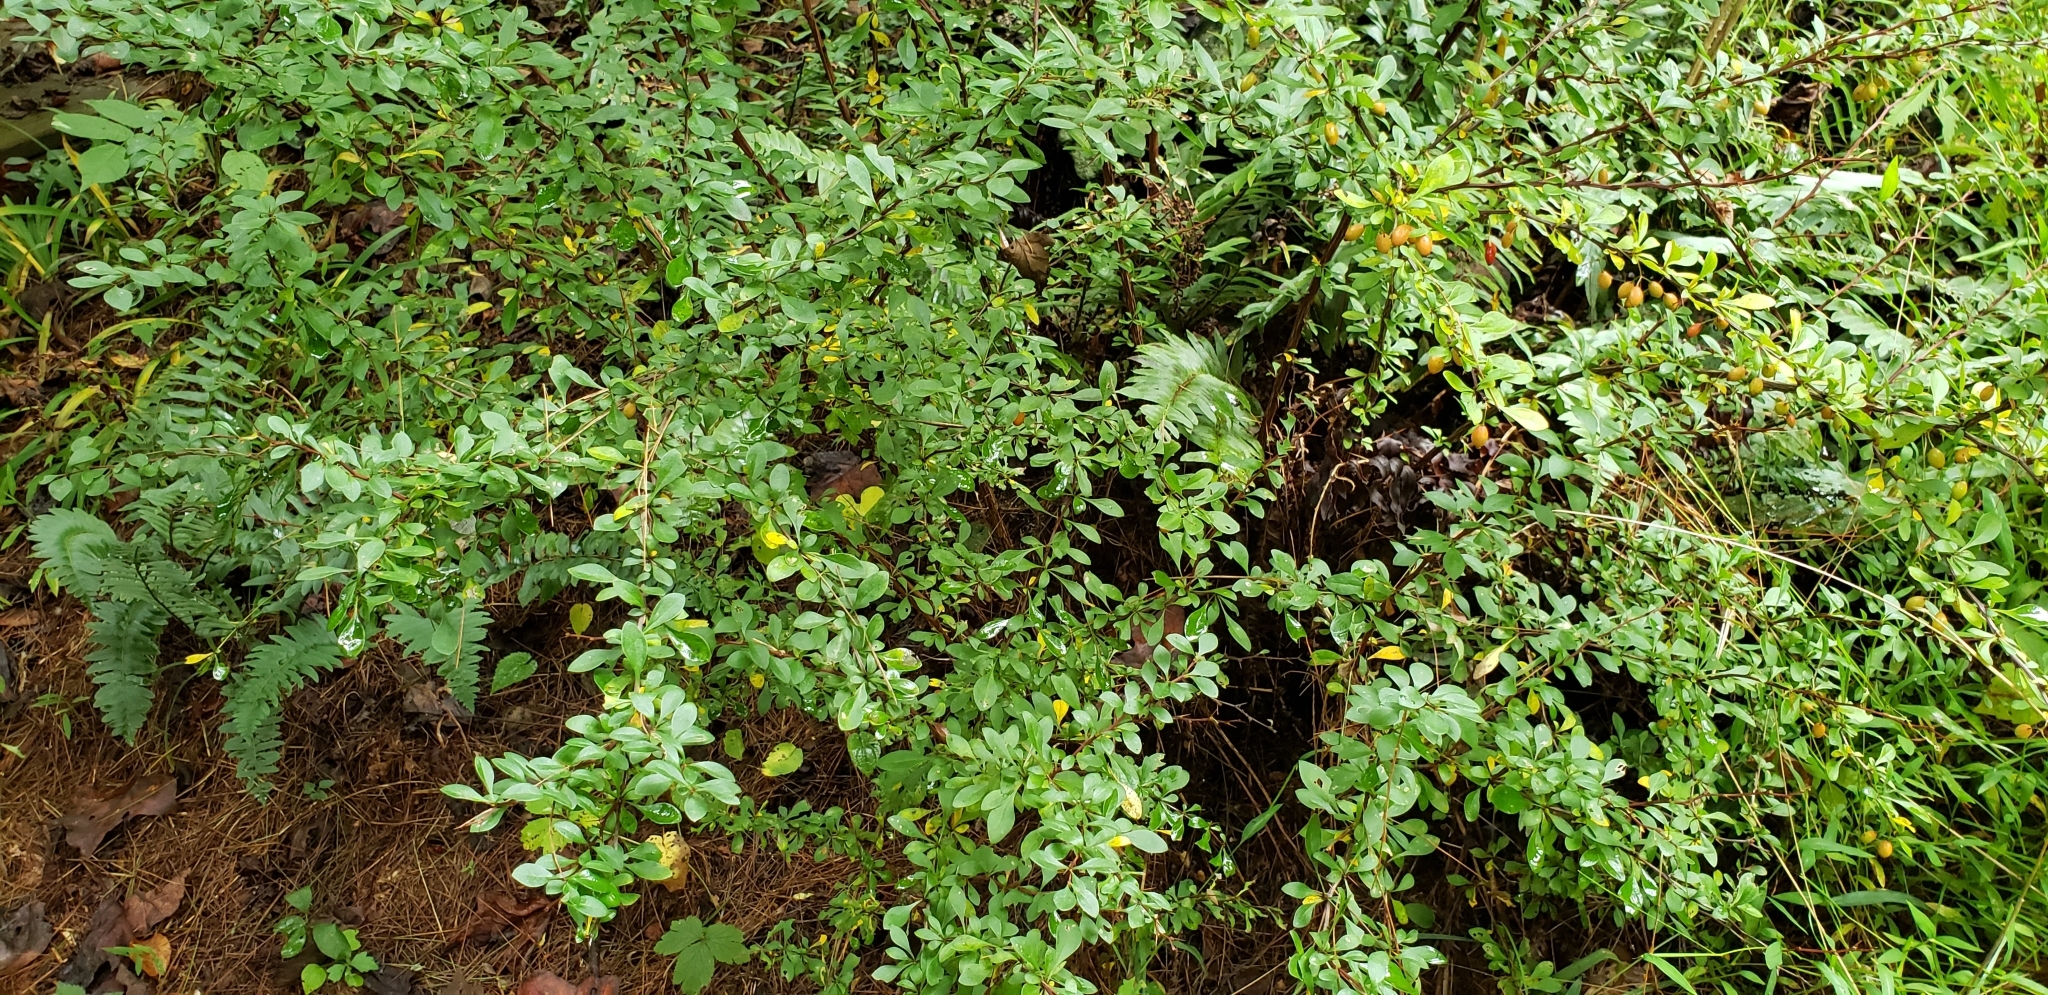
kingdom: Plantae
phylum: Tracheophyta
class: Magnoliopsida
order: Ranunculales
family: Berberidaceae
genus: Berberis
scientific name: Berberis thunbergii
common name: Japanese barberry
